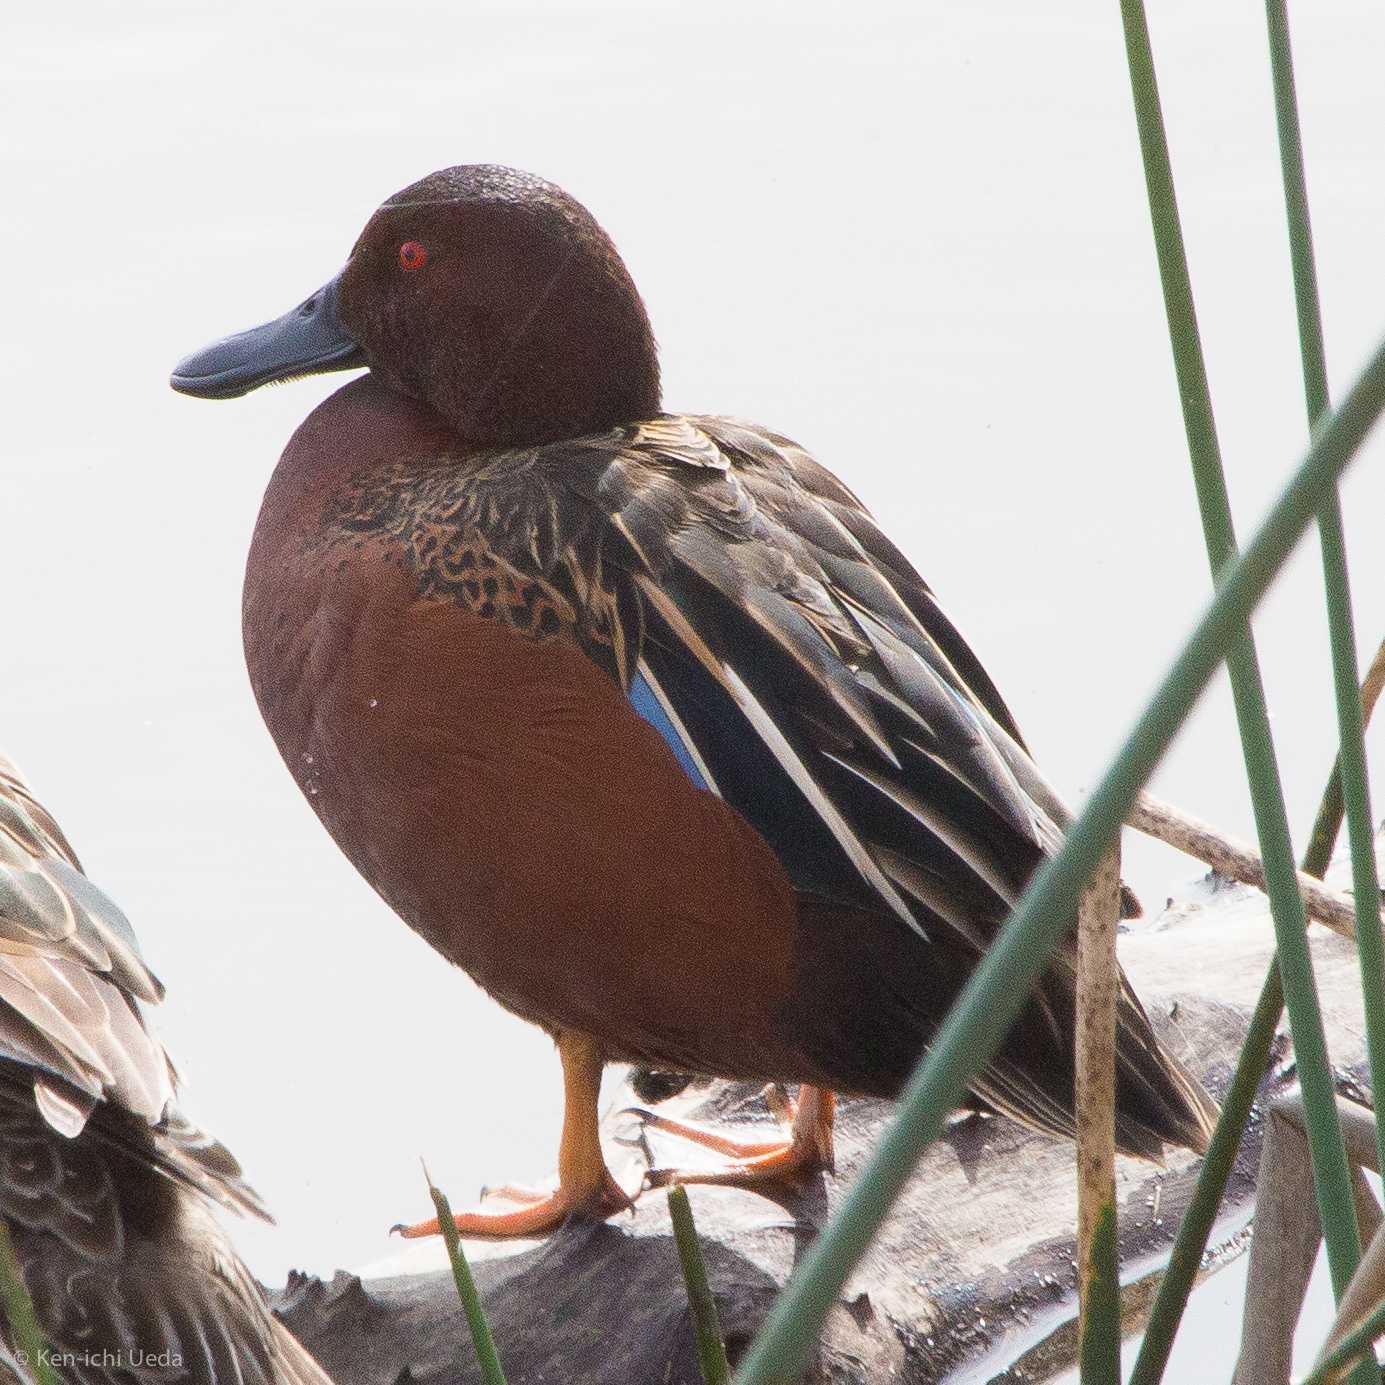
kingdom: Animalia
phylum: Chordata
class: Aves
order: Anseriformes
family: Anatidae
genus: Spatula
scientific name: Spatula cyanoptera
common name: Cinnamon teal
